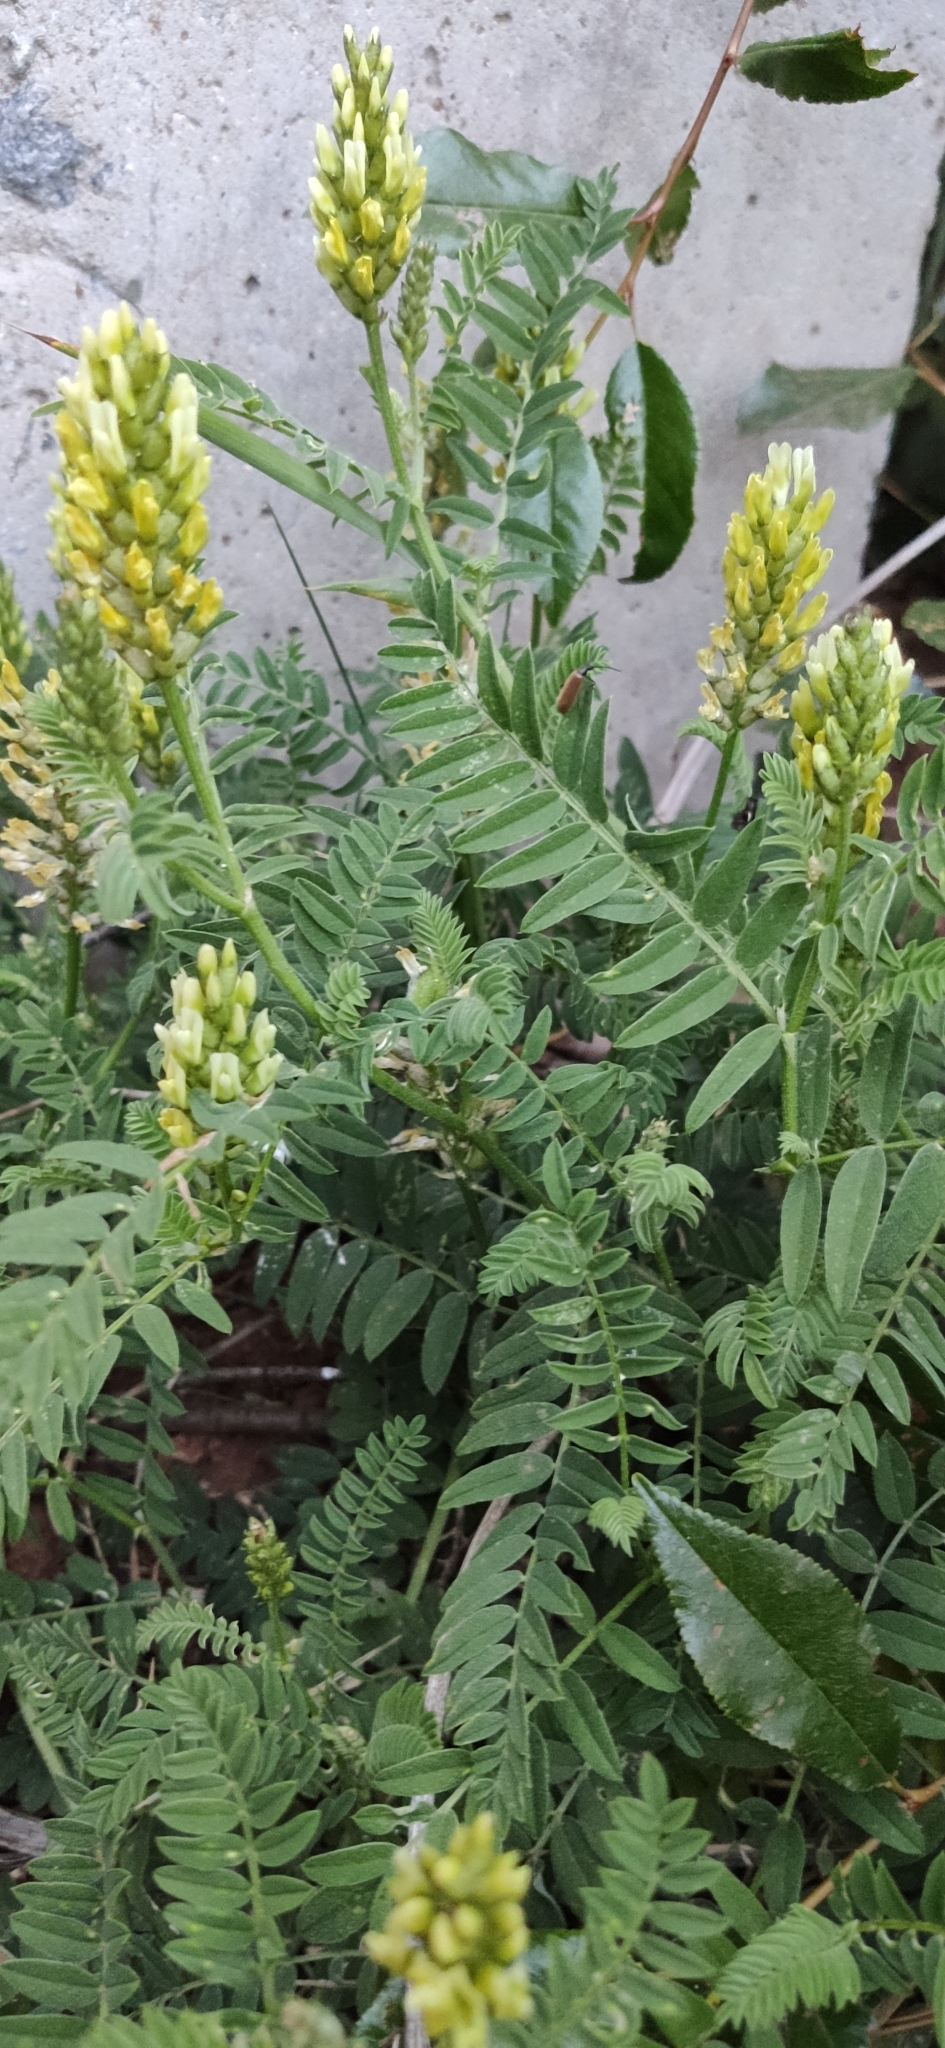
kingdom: Plantae
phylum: Tracheophyta
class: Magnoliopsida
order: Fabales
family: Fabaceae
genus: Astragalus
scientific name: Astragalus cicer
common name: Chick-pea milk-vetch
